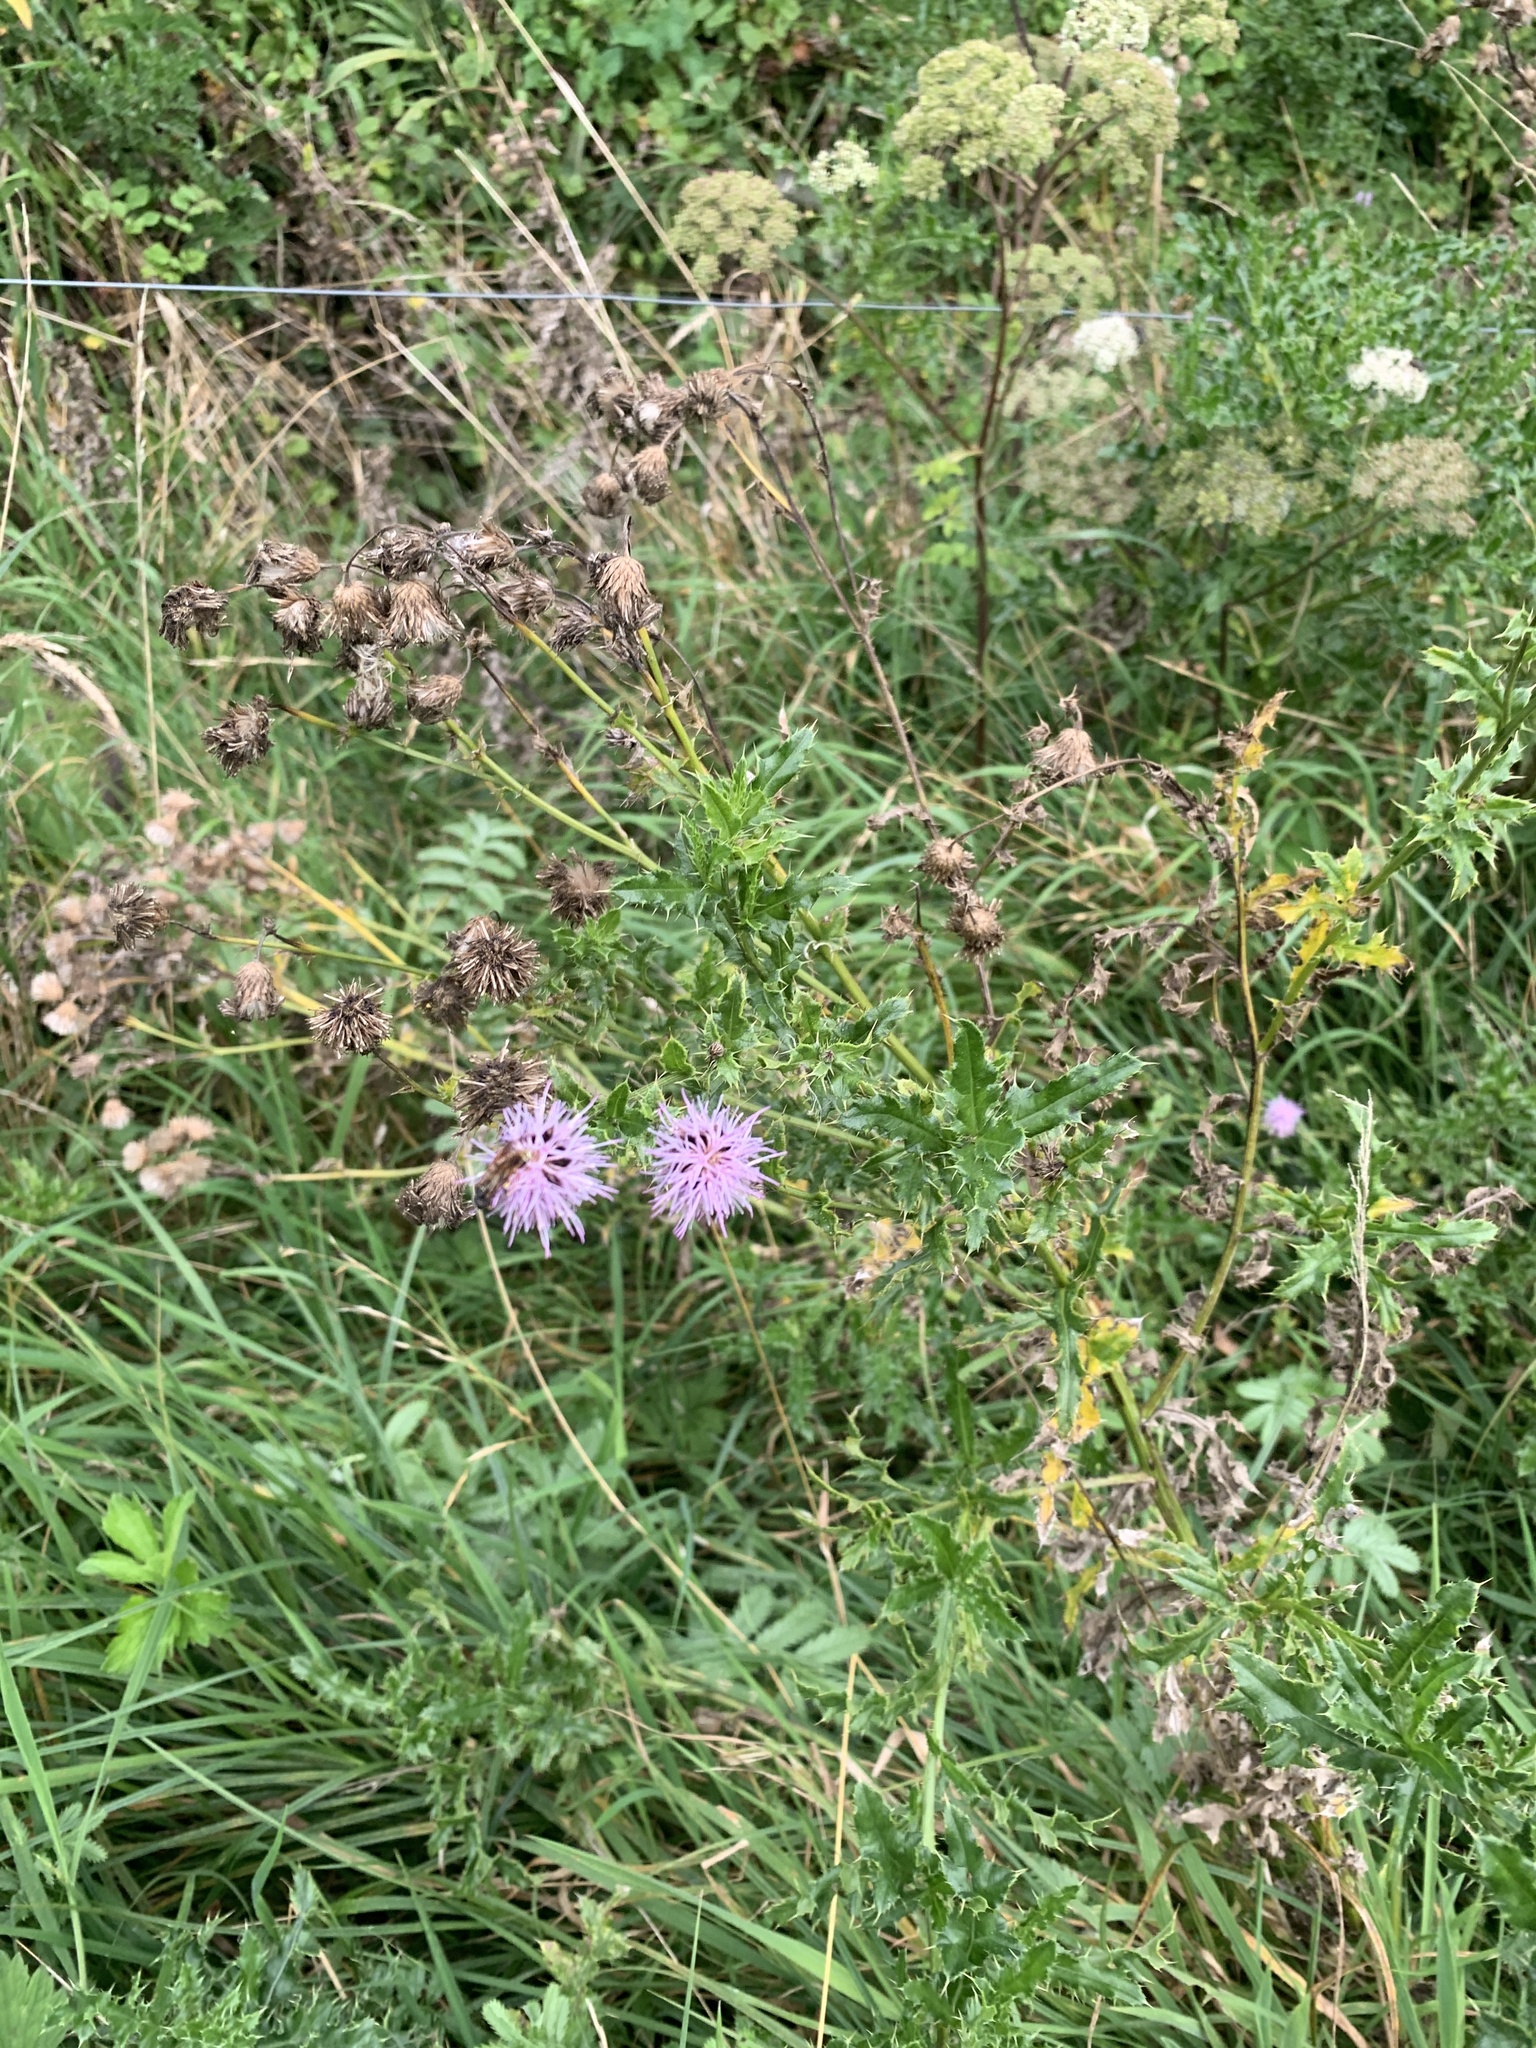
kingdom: Plantae
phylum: Tracheophyta
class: Magnoliopsida
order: Asterales
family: Asteraceae
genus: Cirsium
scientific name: Cirsium arvense
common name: Creeping thistle
